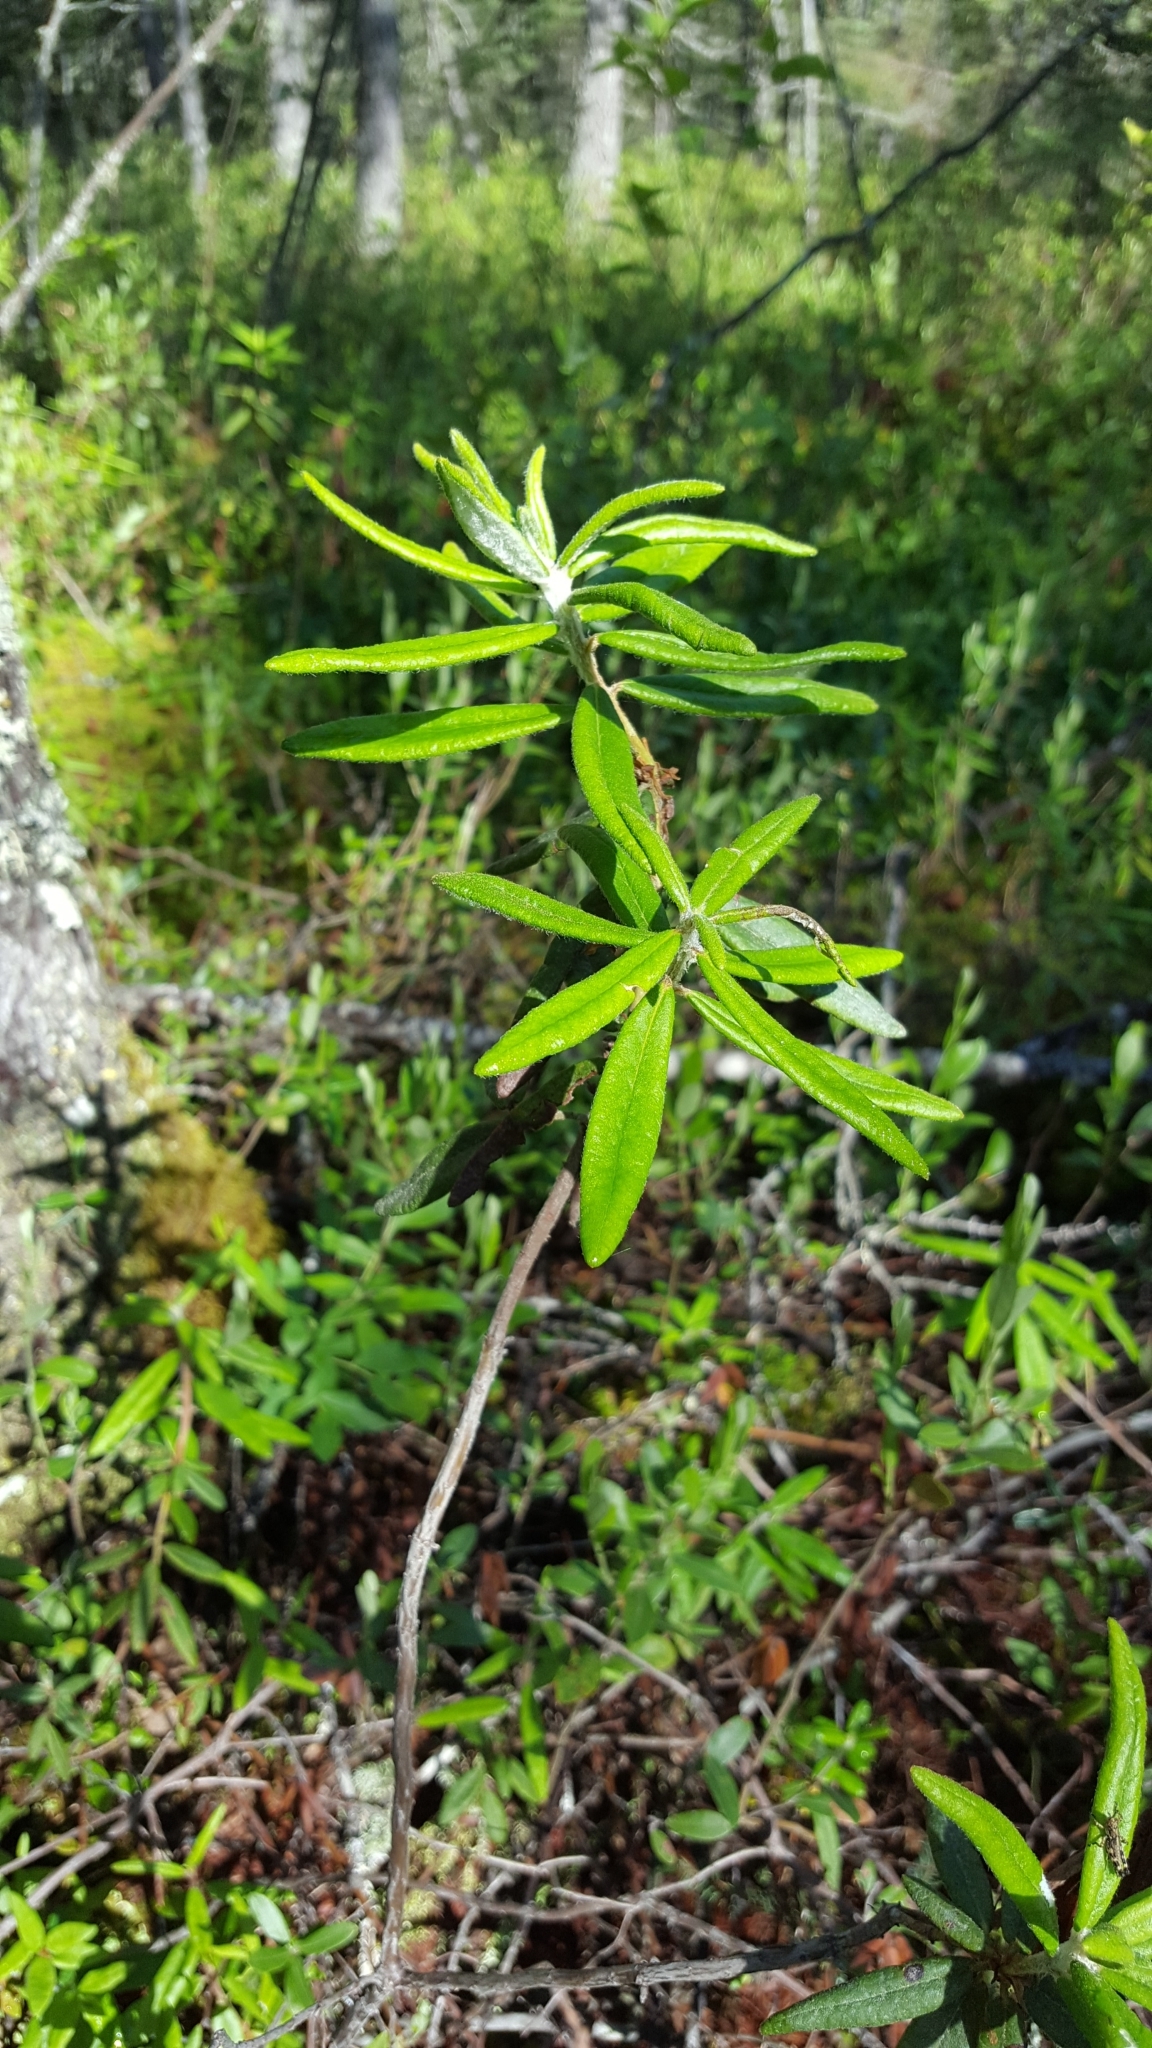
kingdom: Plantae
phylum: Tracheophyta
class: Magnoliopsida
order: Ericales
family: Ericaceae
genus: Rhododendron
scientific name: Rhododendron groenlandicum
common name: Bog labrador tea
